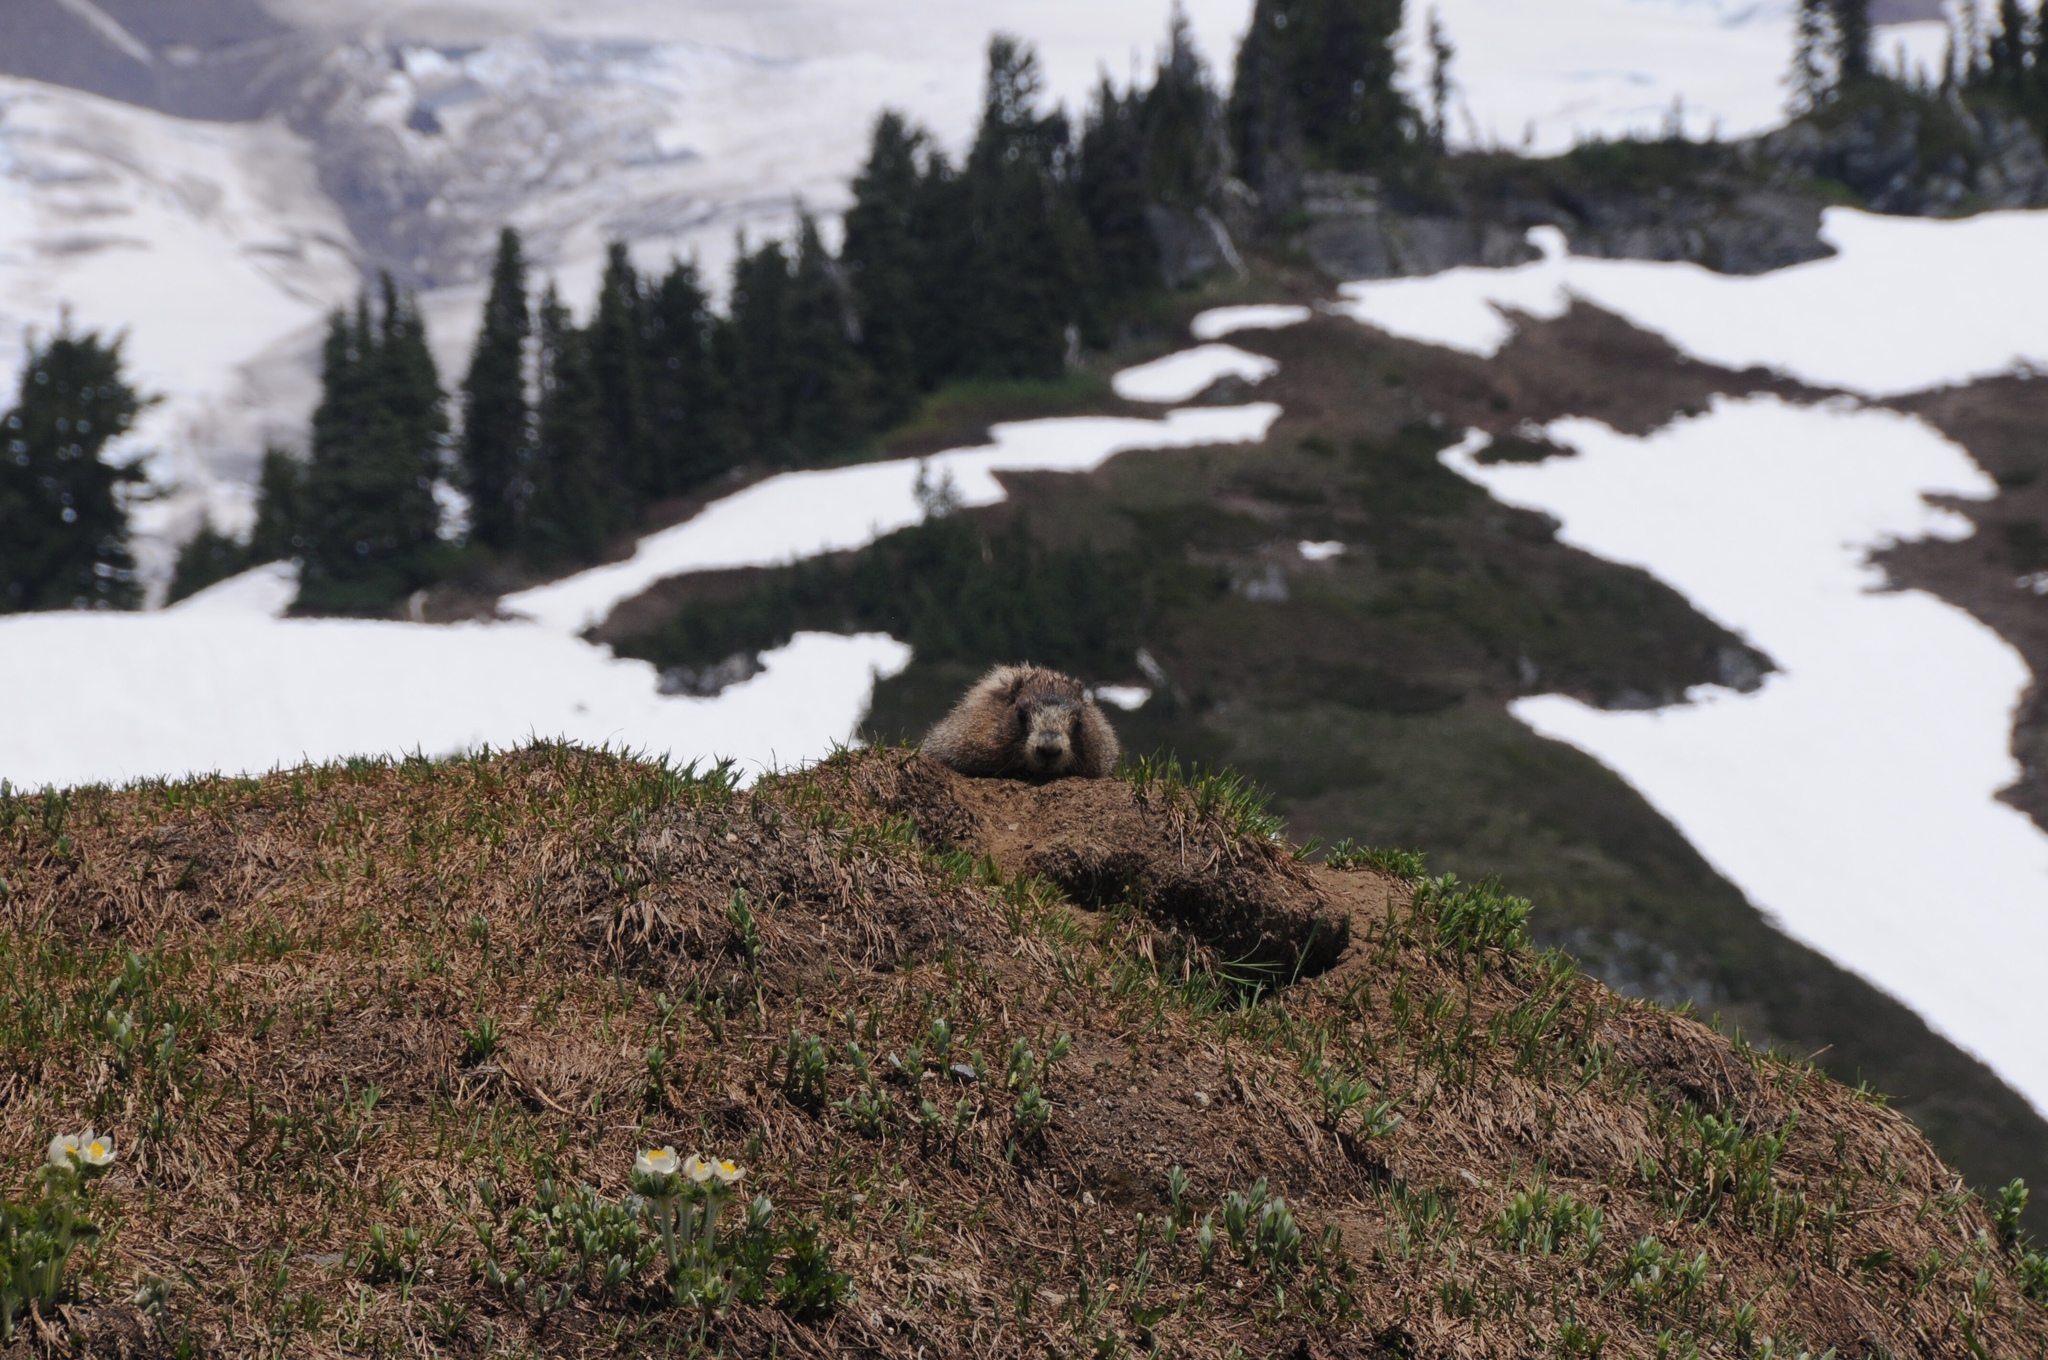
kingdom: Animalia
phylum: Chordata
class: Mammalia
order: Rodentia
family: Sciuridae
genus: Marmota
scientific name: Marmota caligata
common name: Hoary marmot
